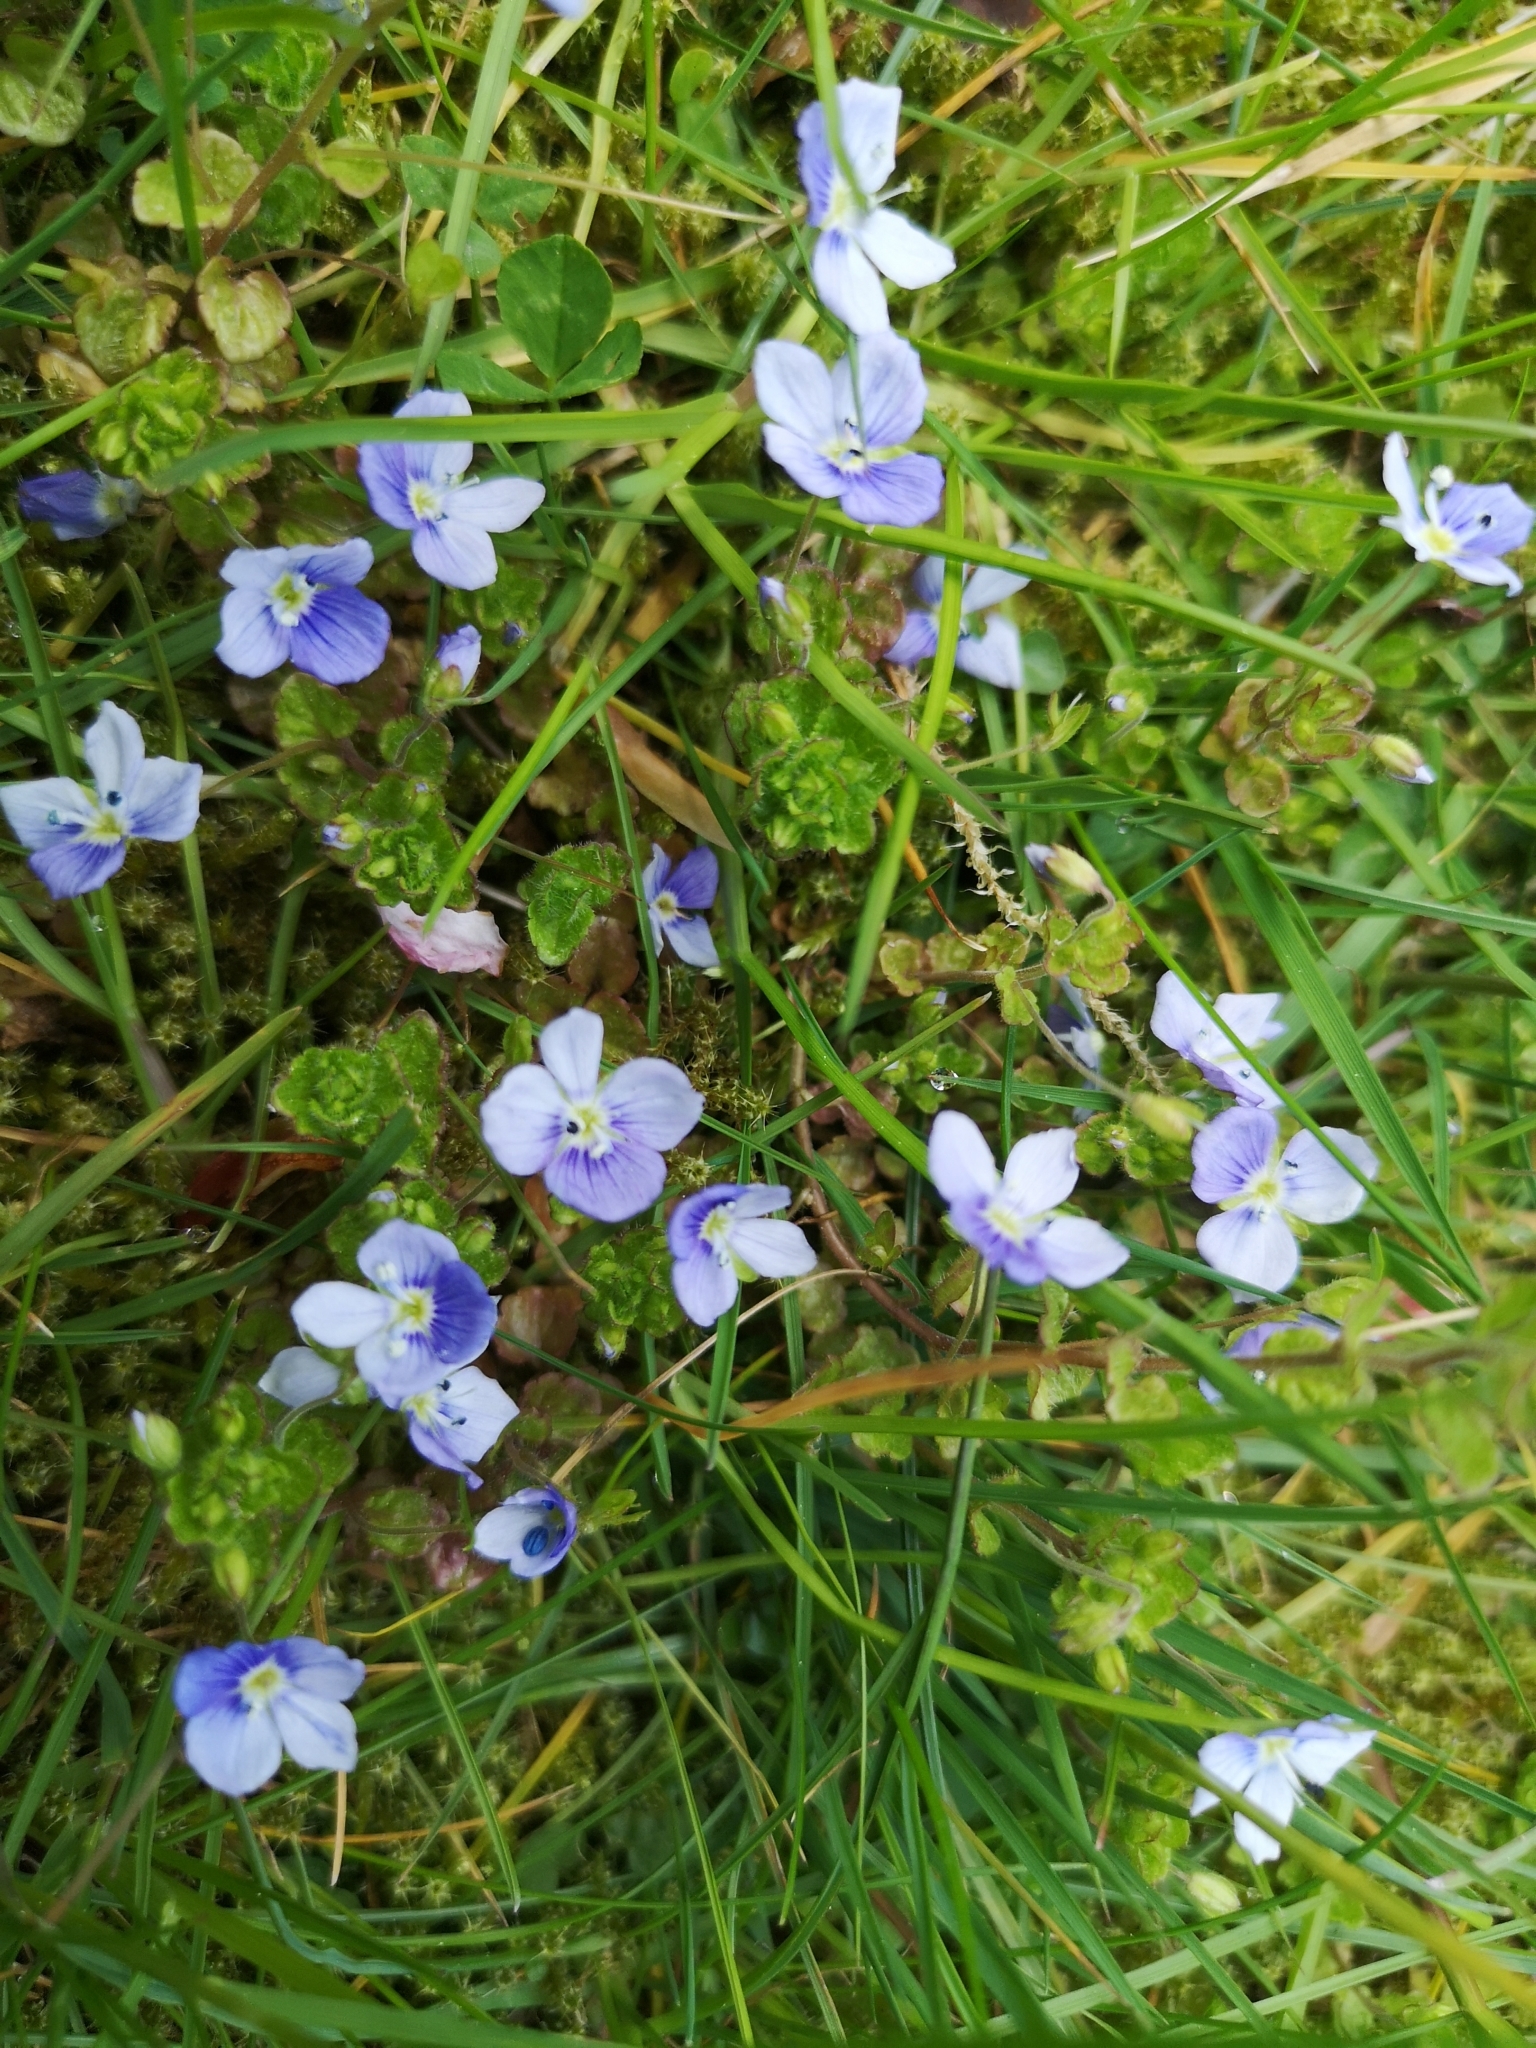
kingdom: Plantae
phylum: Tracheophyta
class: Magnoliopsida
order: Lamiales
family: Plantaginaceae
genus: Veronica
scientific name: Veronica filiformis
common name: Slender speedwell
